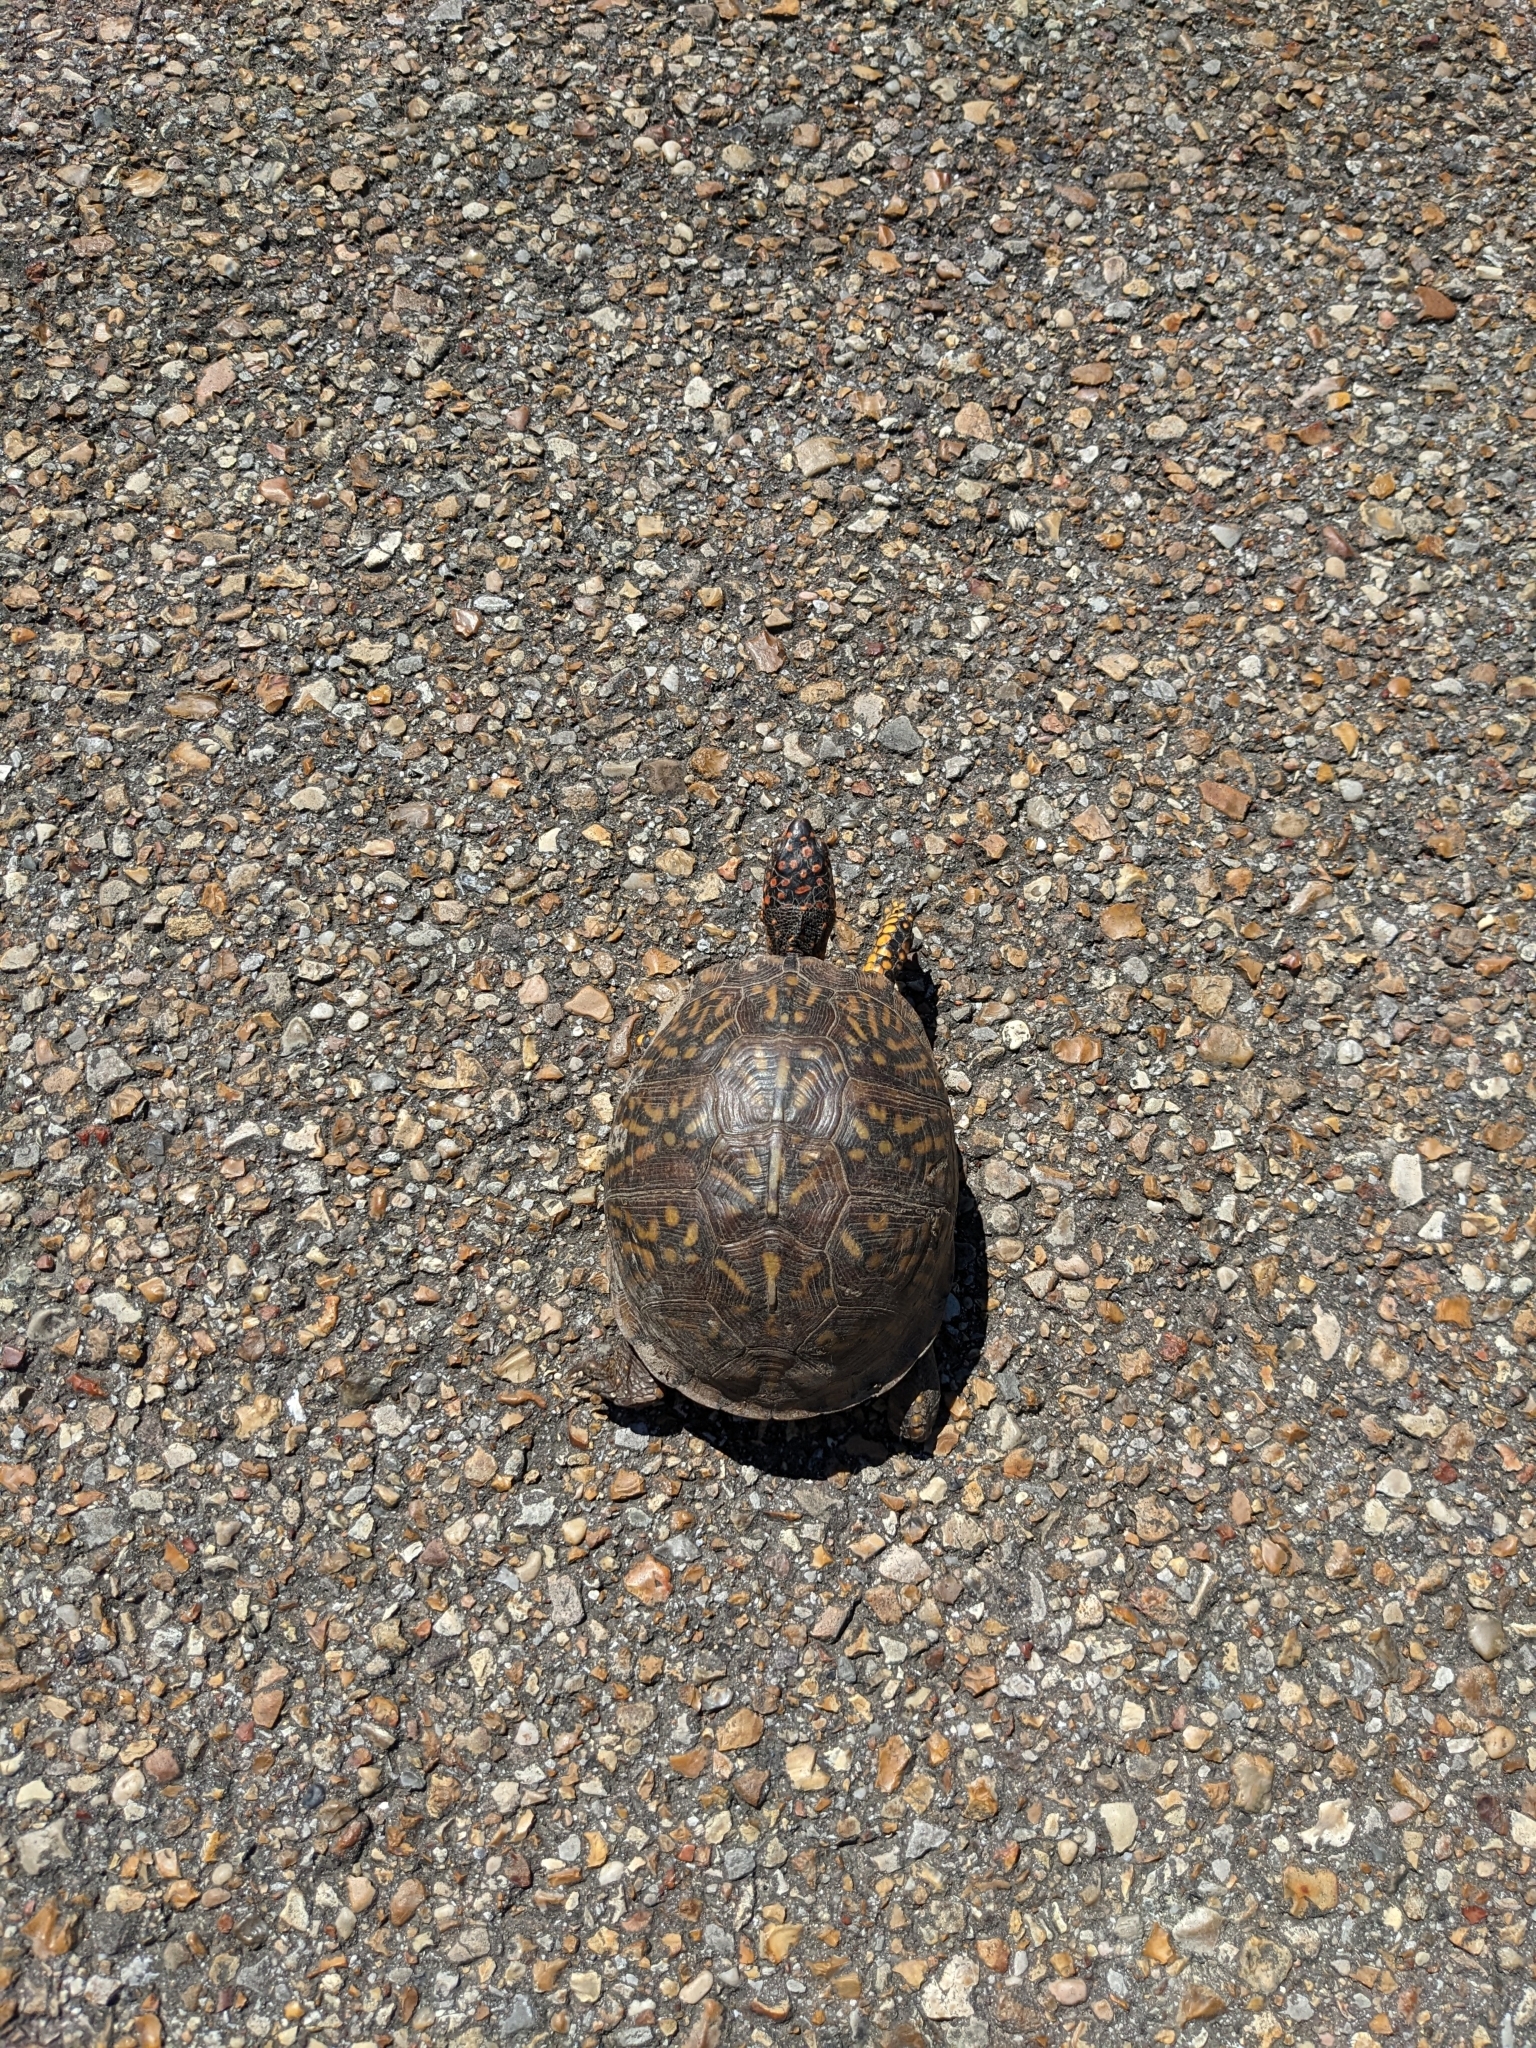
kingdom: Animalia
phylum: Chordata
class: Testudines
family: Emydidae
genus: Terrapene
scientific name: Terrapene carolina
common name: Common box turtle
